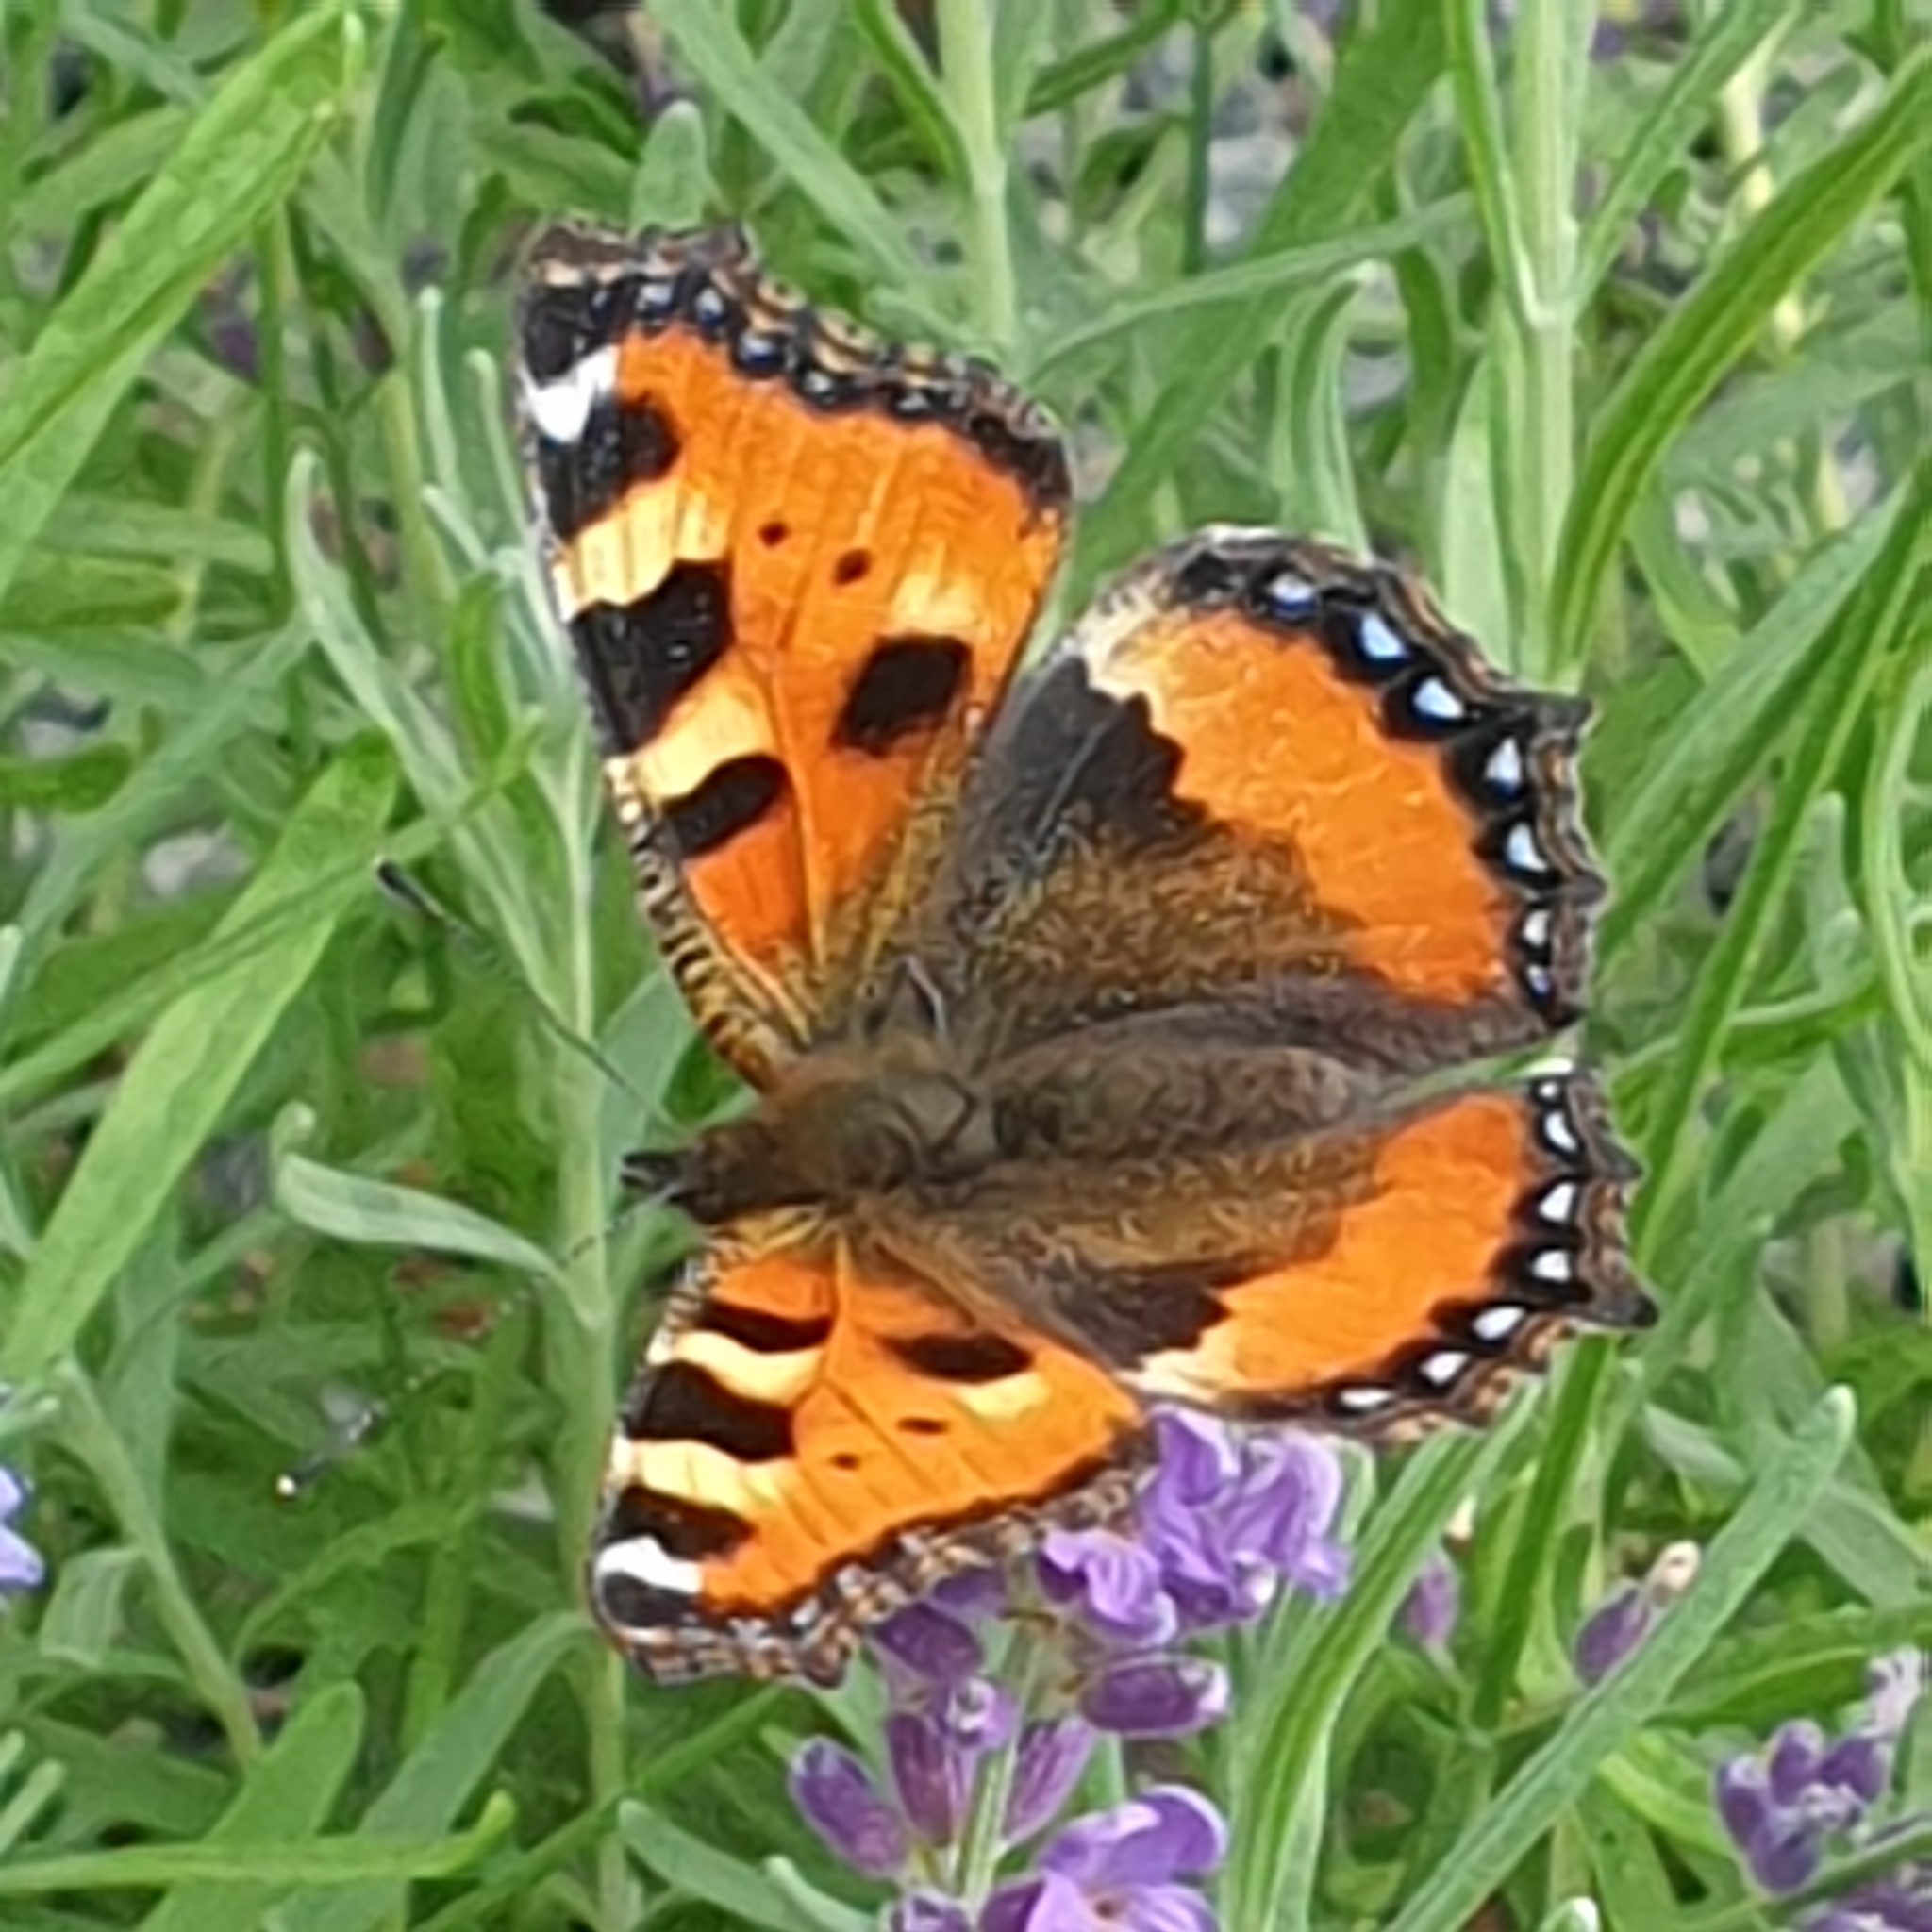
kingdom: Animalia
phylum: Arthropoda
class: Insecta
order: Lepidoptera
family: Nymphalidae
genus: Aglais
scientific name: Aglais urticae
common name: Small tortoiseshell
